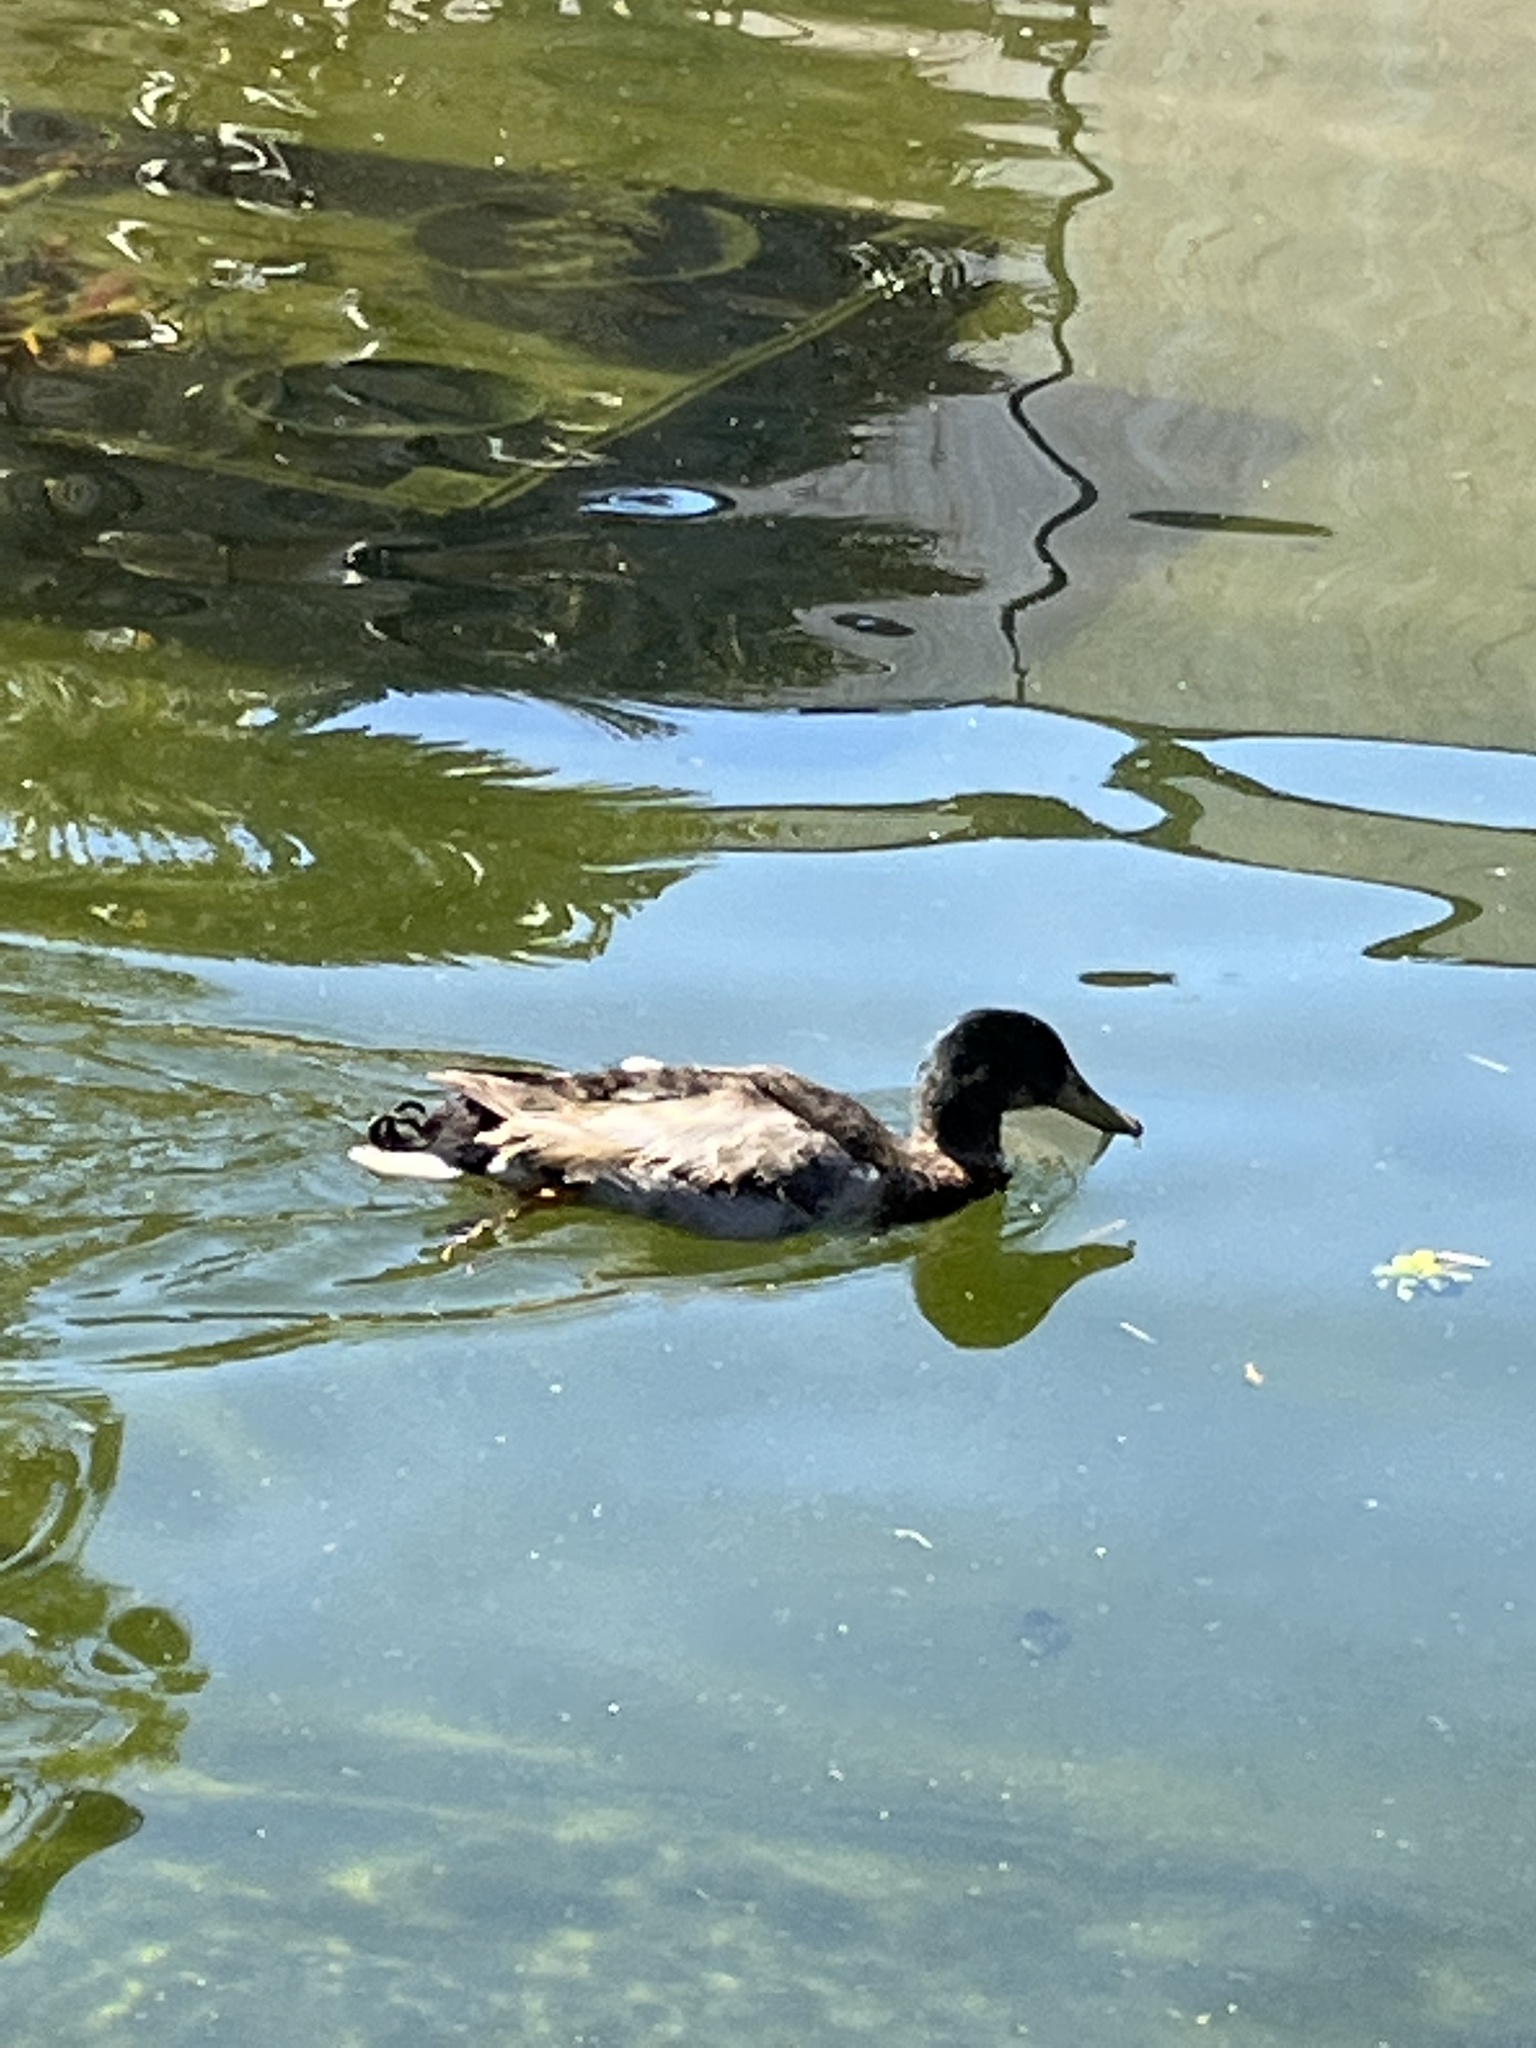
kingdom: Animalia
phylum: Chordata
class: Aves
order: Anseriformes
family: Anatidae
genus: Anas
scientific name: Anas platyrhynchos
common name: Mallard
